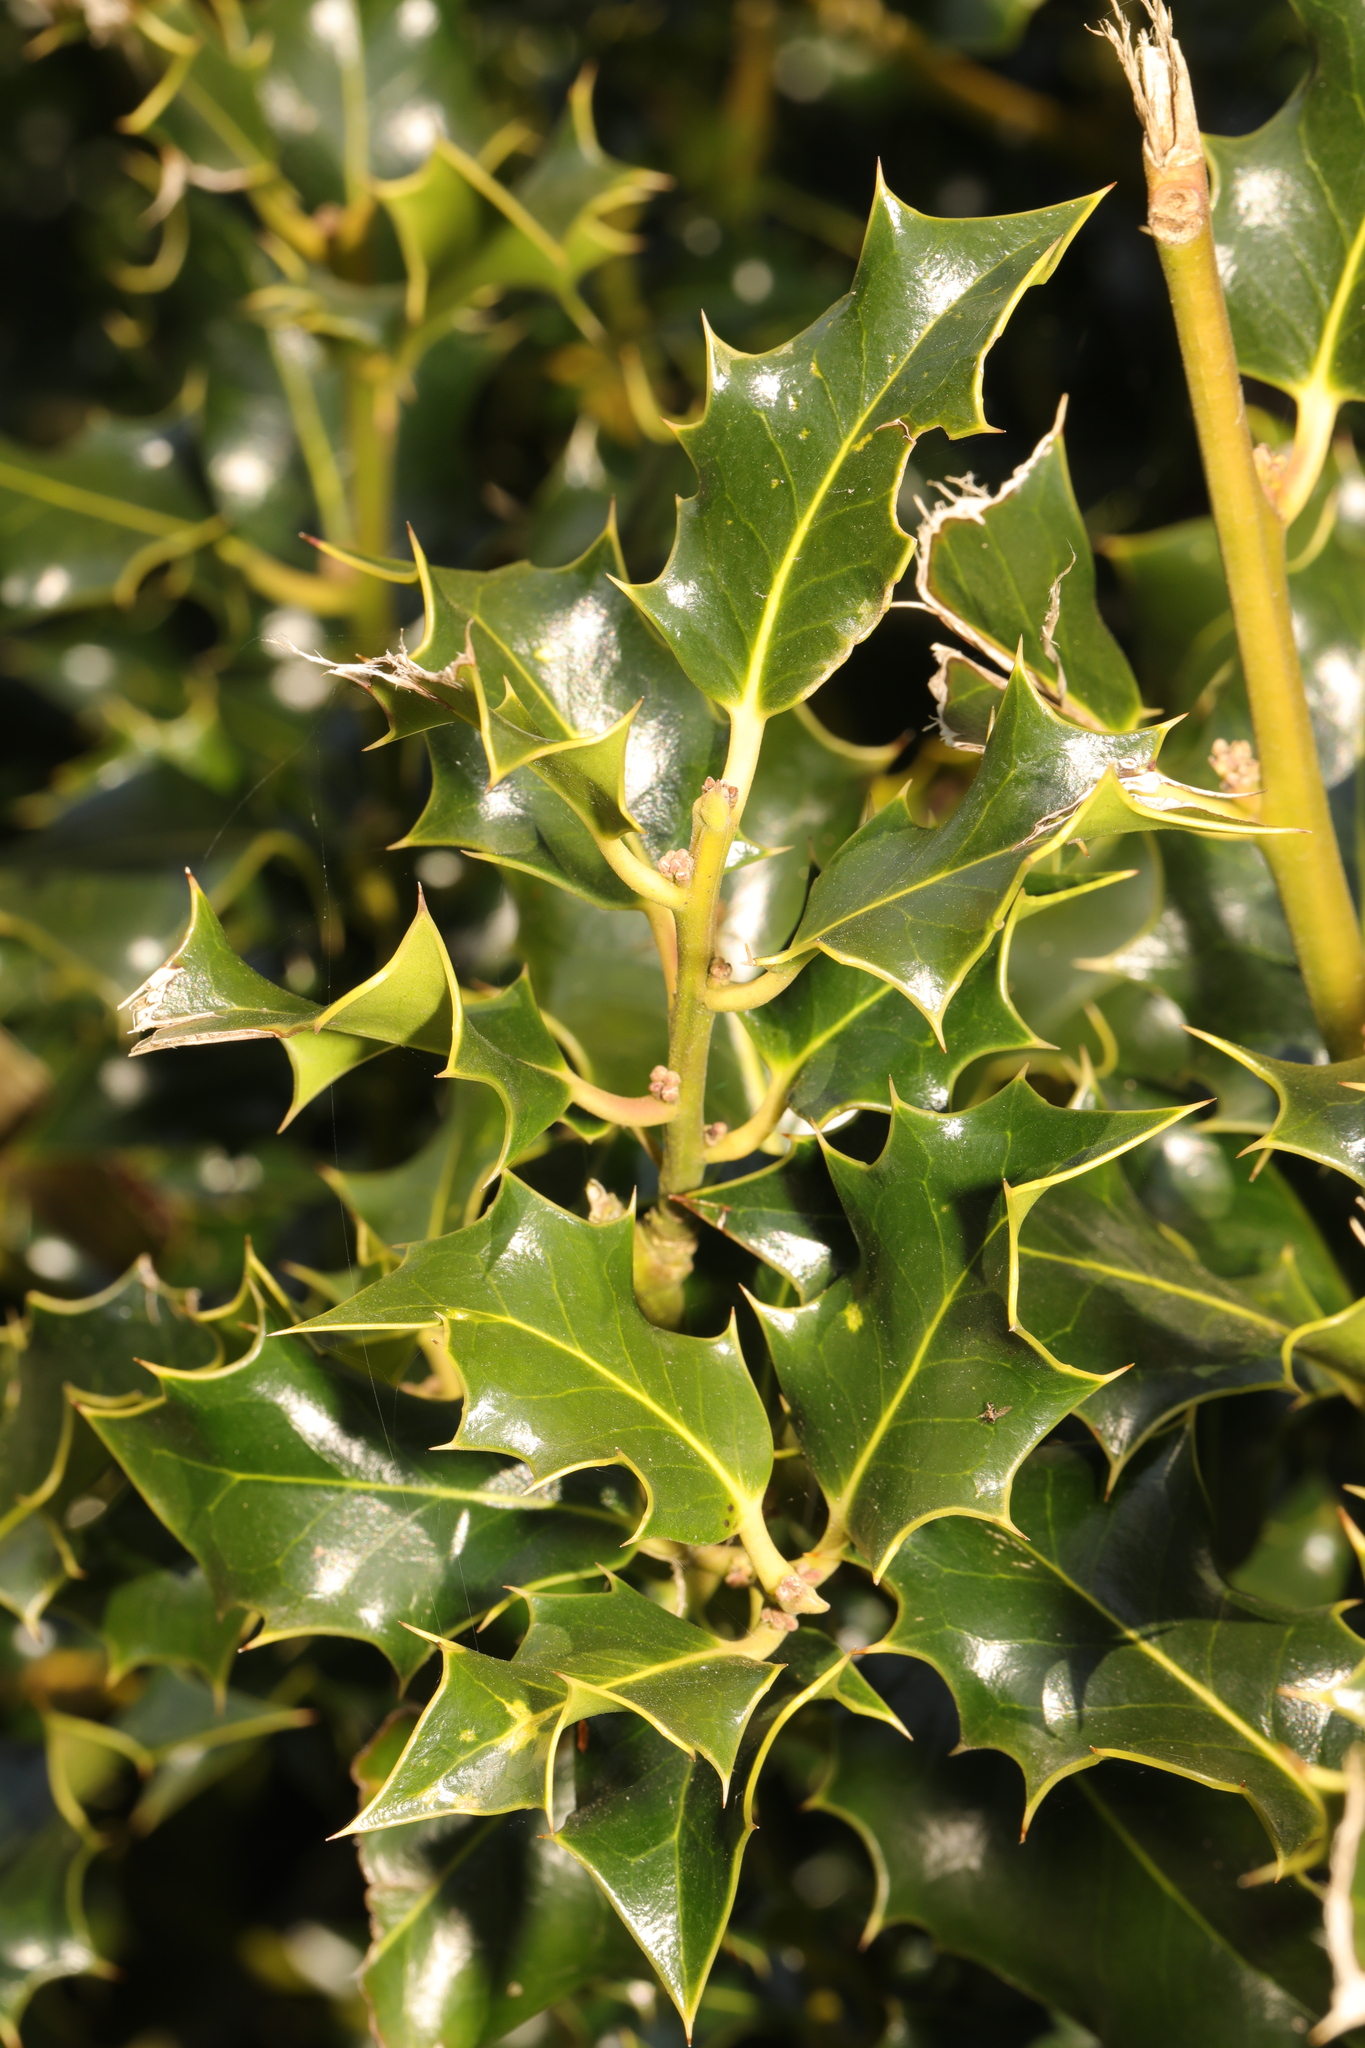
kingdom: Plantae
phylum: Tracheophyta
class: Magnoliopsida
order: Aquifoliales
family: Aquifoliaceae
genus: Ilex
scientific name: Ilex aquifolium
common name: English holly
